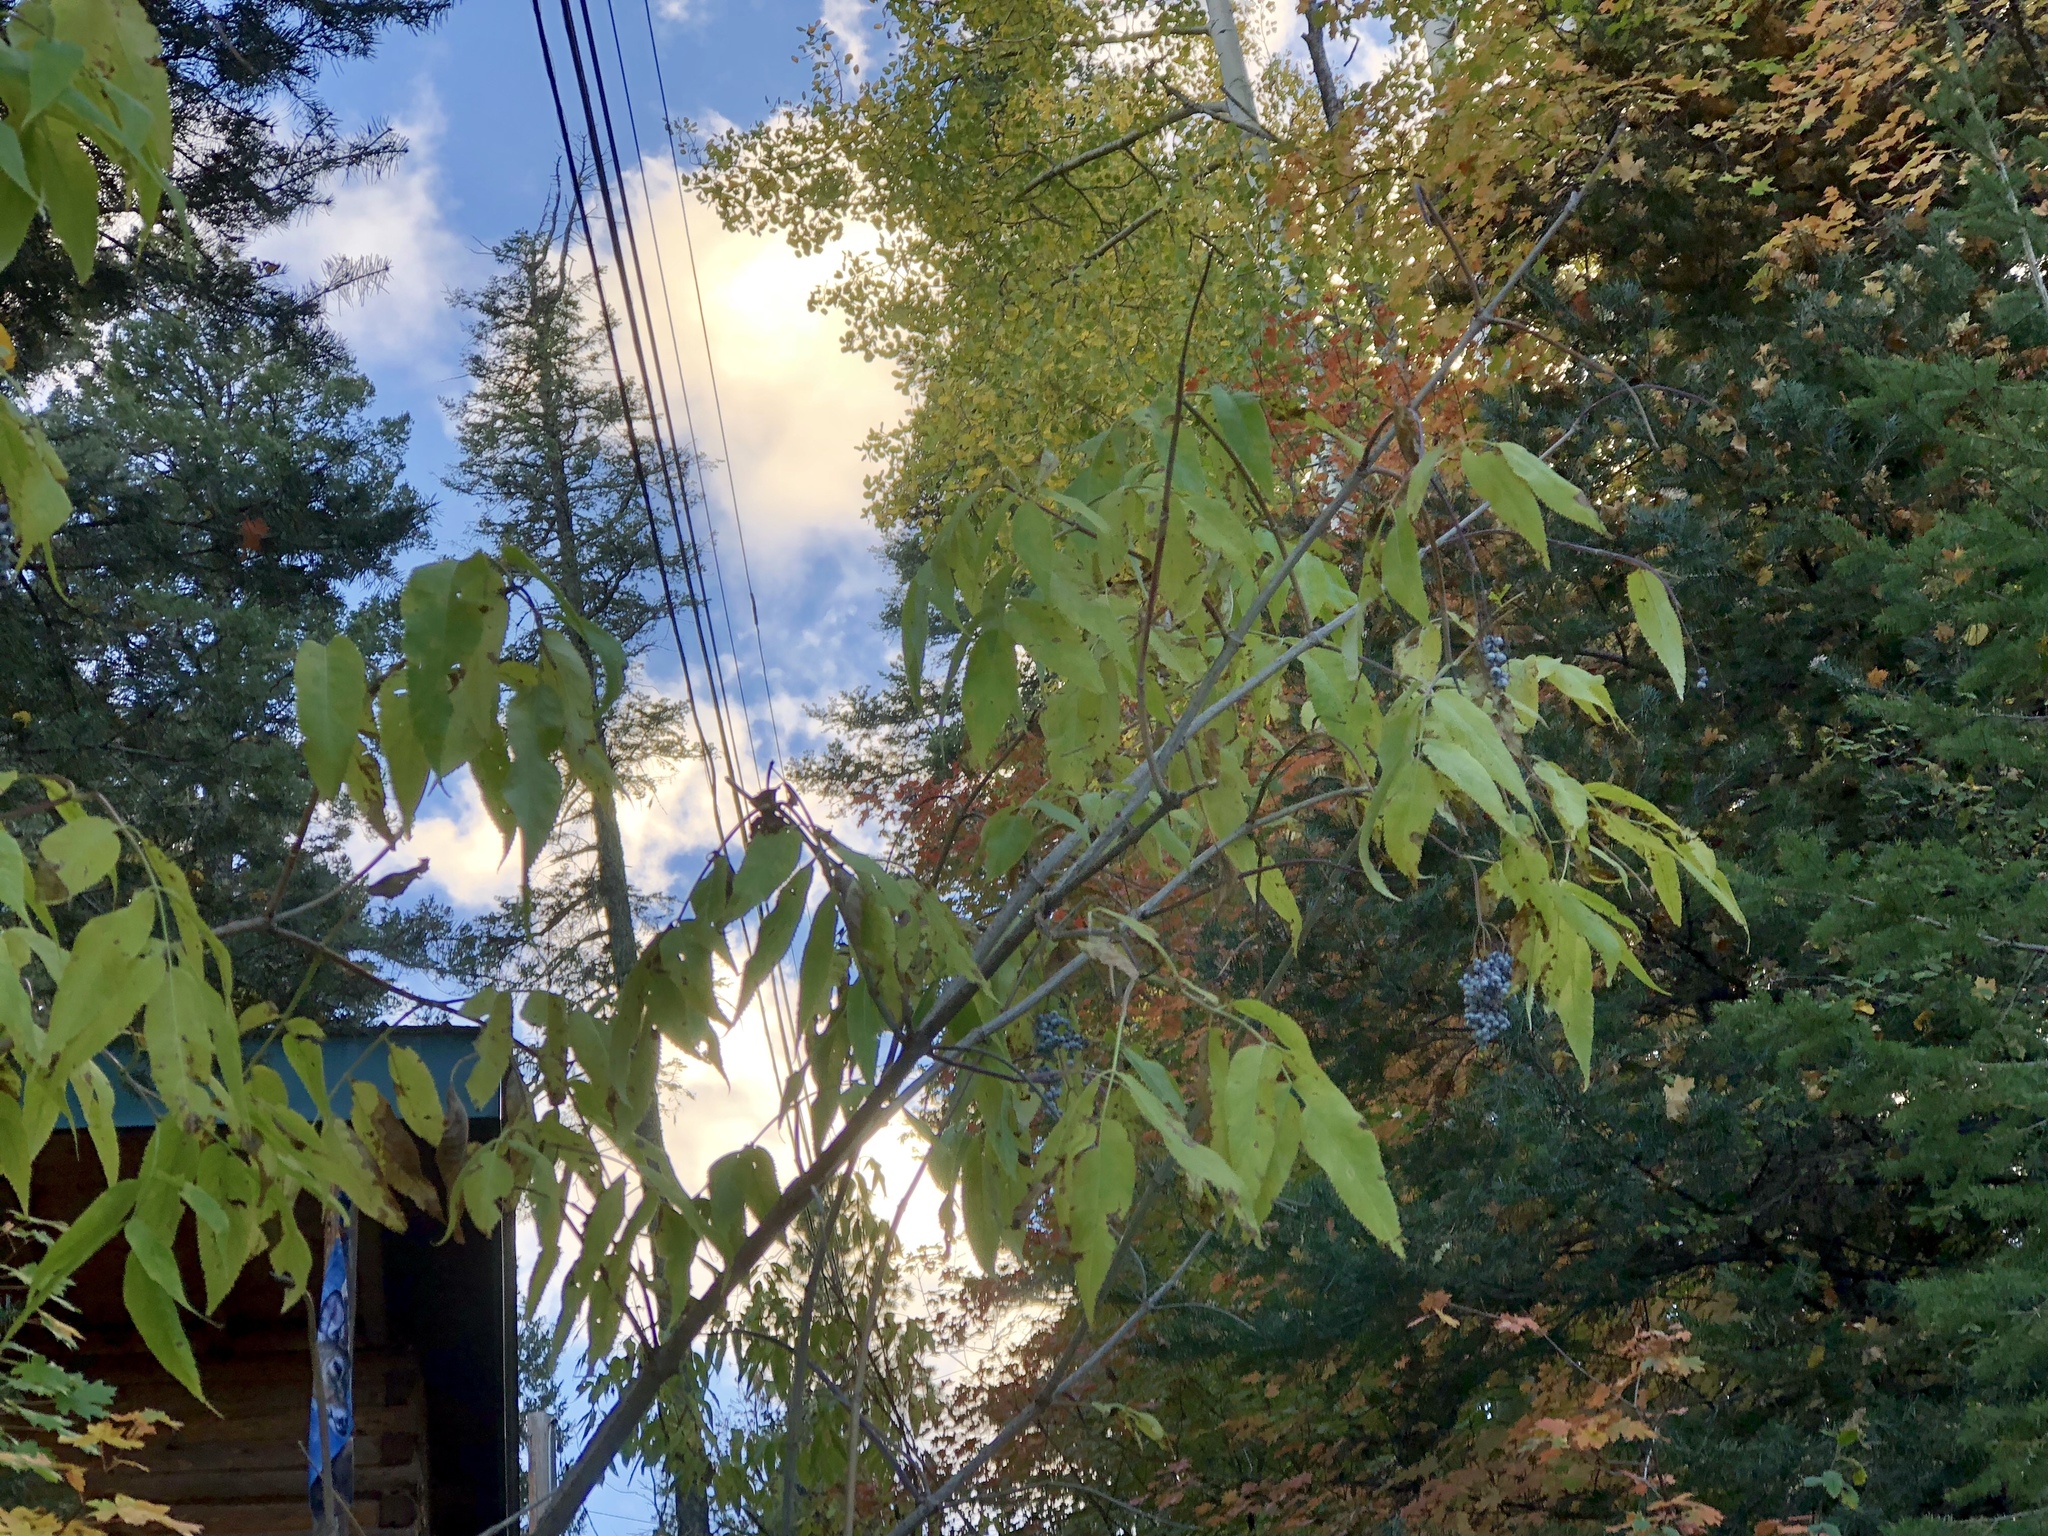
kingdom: Plantae
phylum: Tracheophyta
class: Magnoliopsida
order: Dipsacales
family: Viburnaceae
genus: Sambucus
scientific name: Sambucus cerulea
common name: Blue elder
